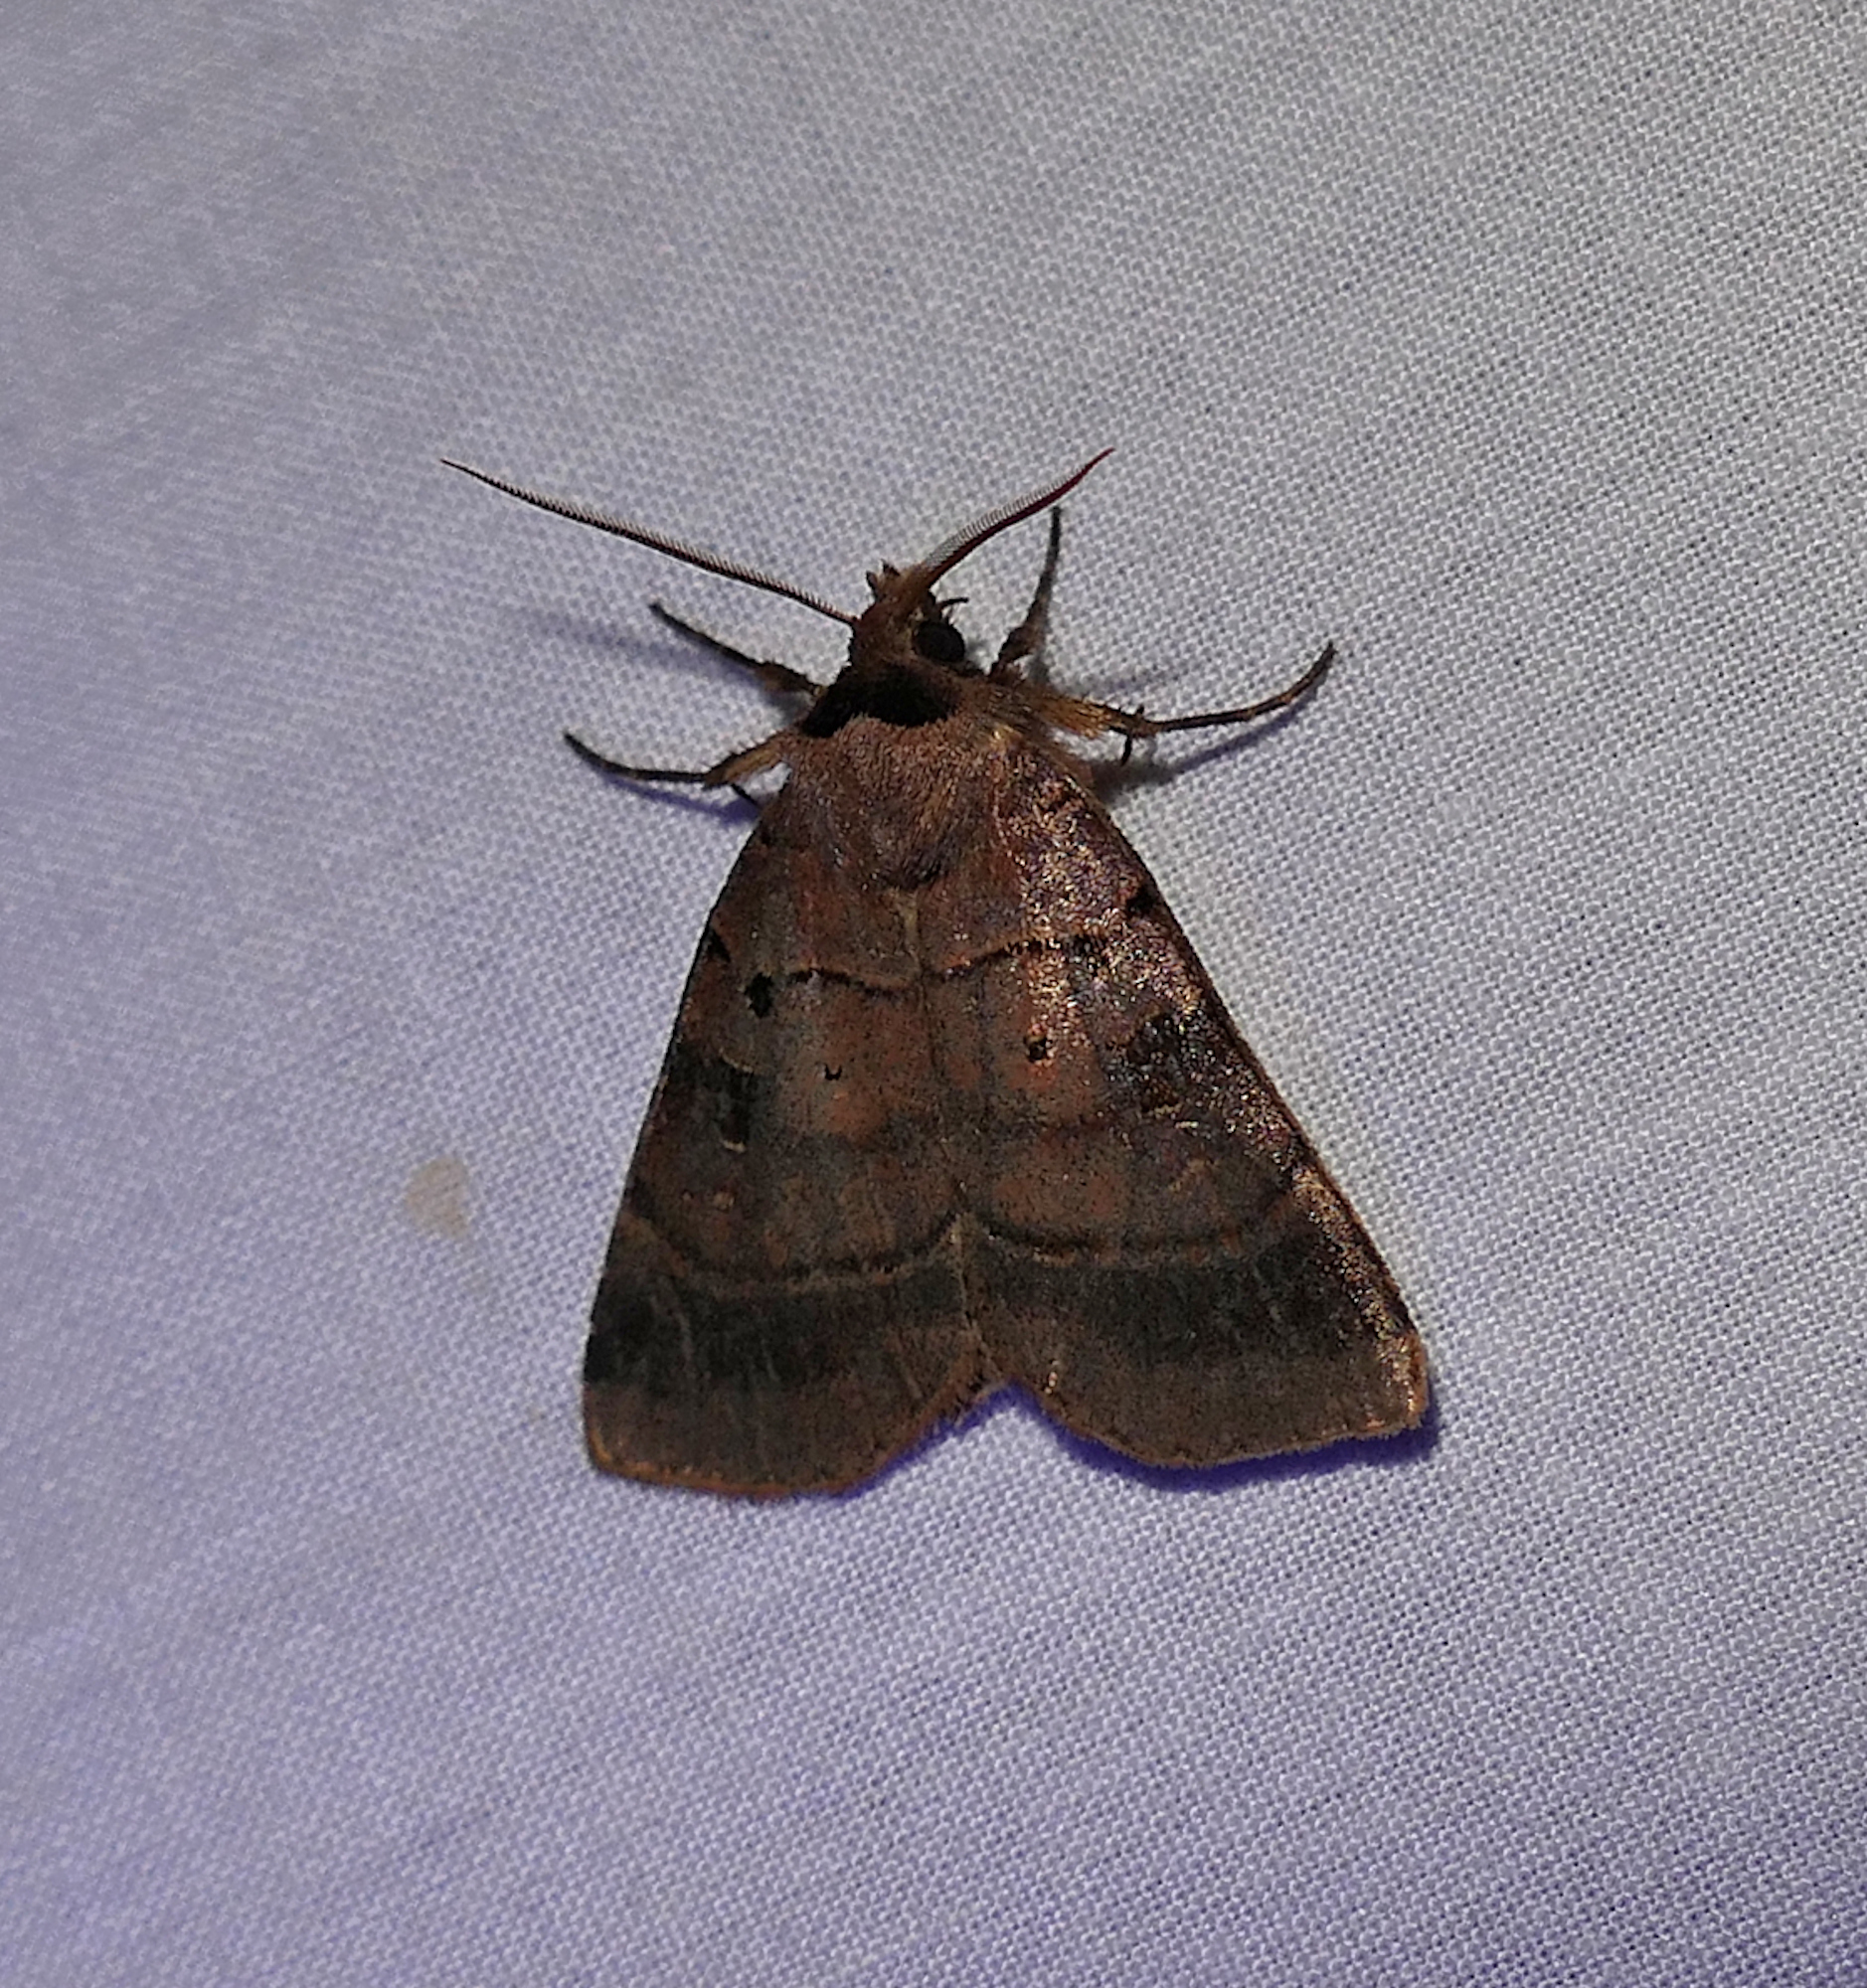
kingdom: Animalia
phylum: Arthropoda
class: Insecta
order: Lepidoptera
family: Noctuidae
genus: Agnorisma
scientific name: Agnorisma badinodis
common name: Pale-banded dart
